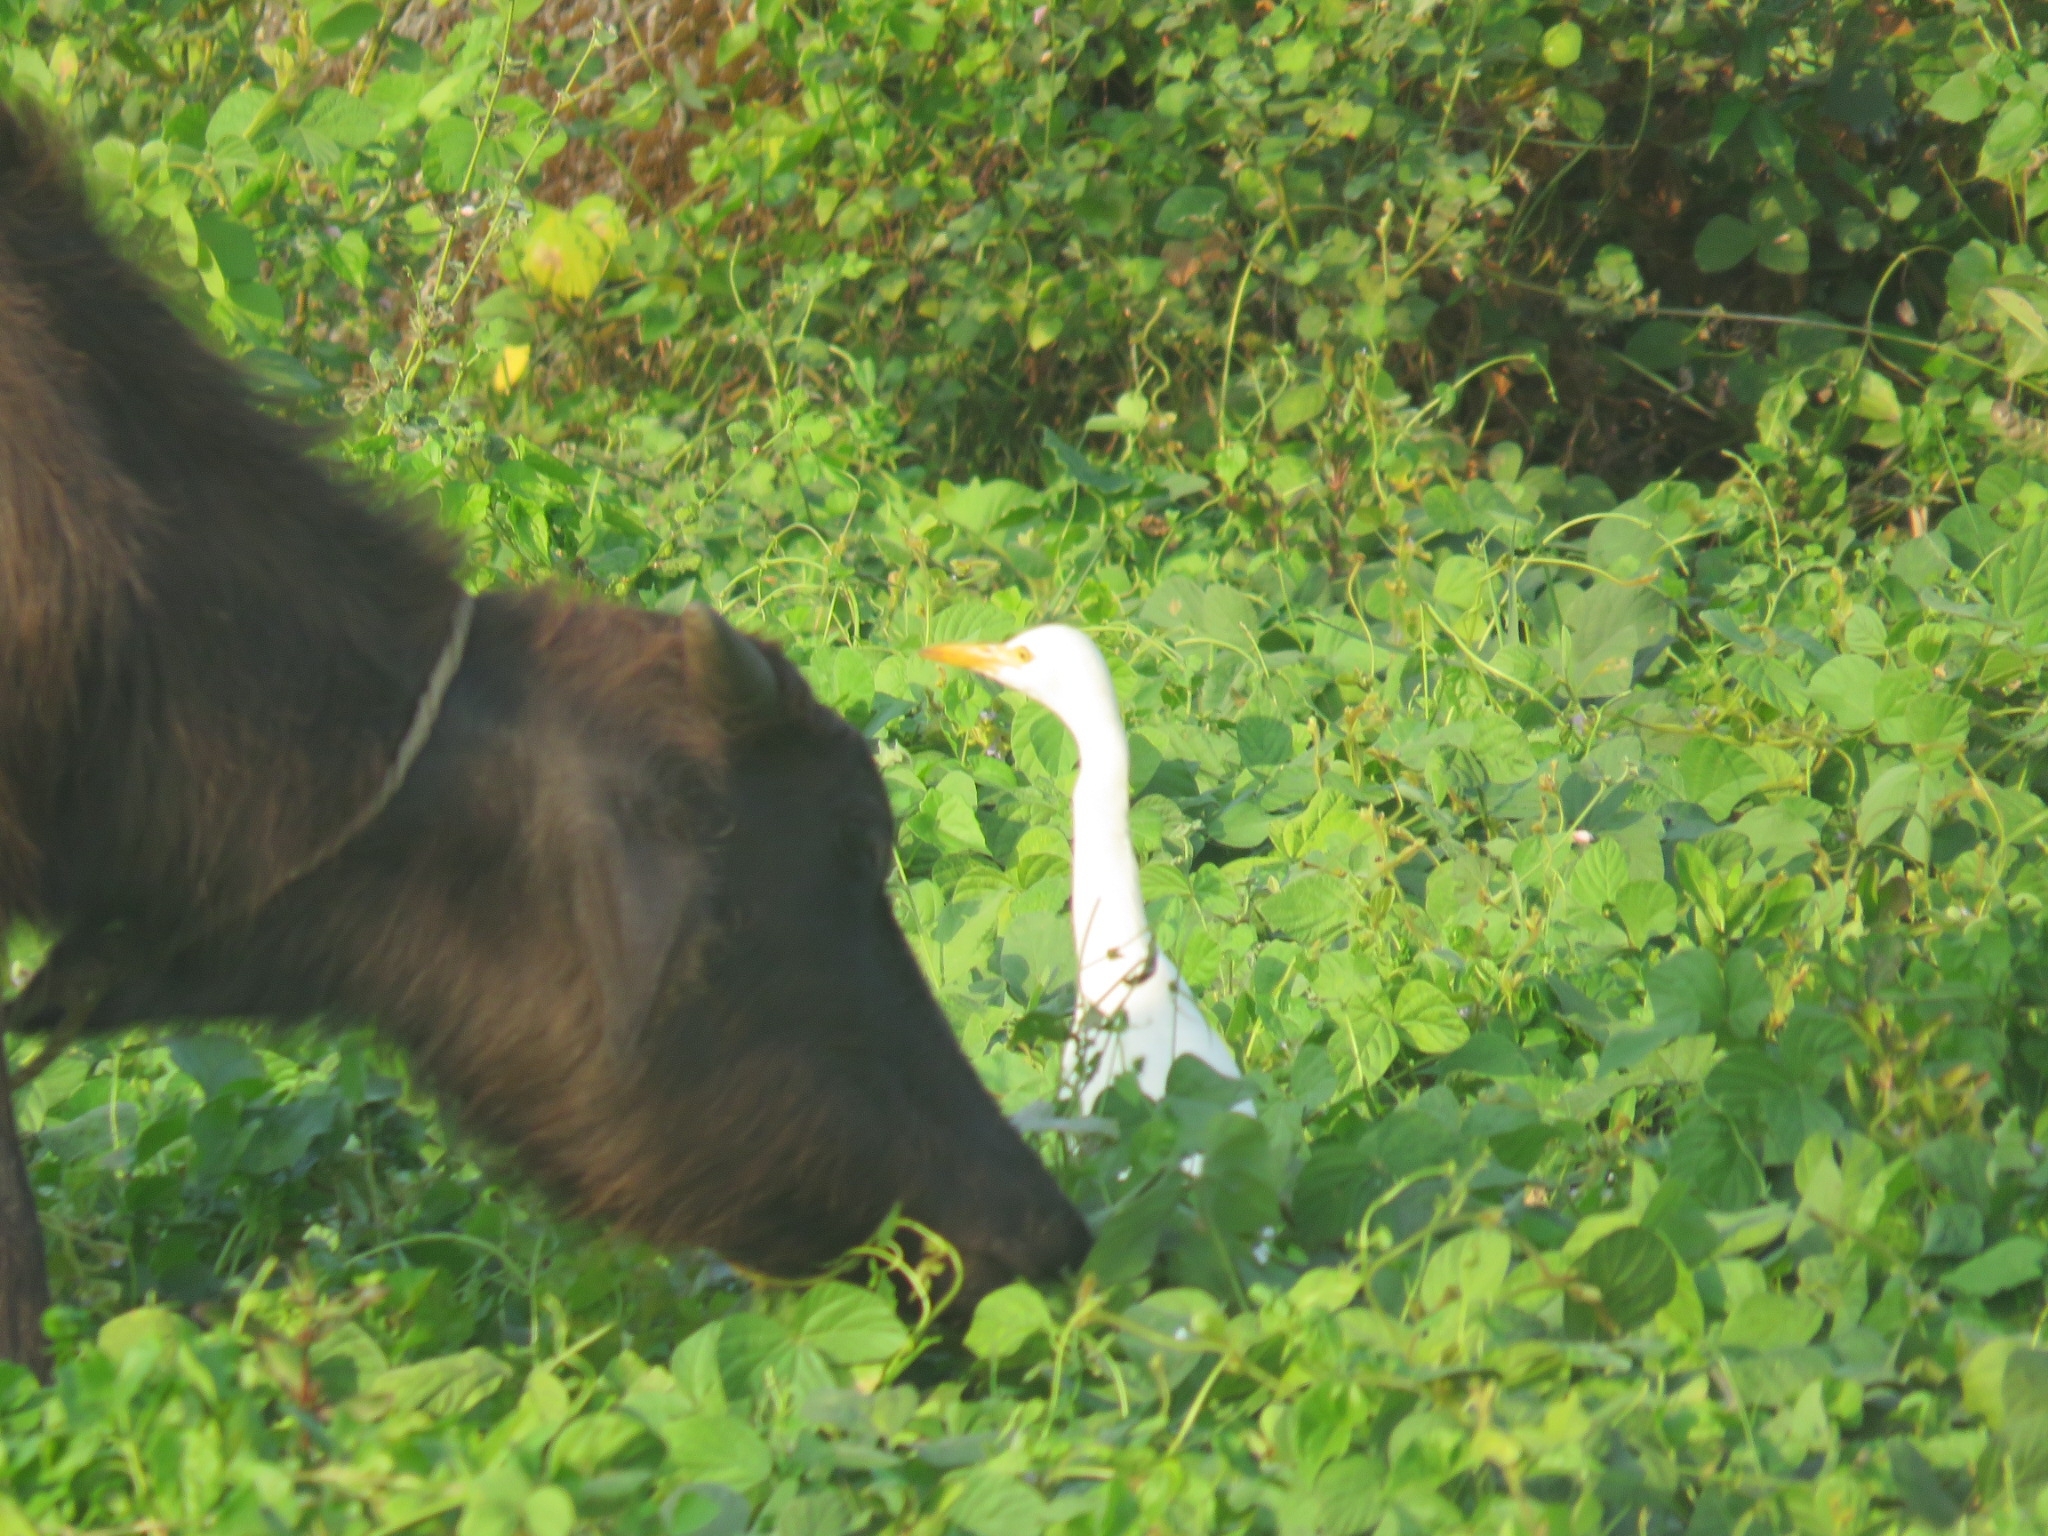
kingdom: Animalia
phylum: Chordata
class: Aves
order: Pelecaniformes
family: Ardeidae
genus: Bubulcus
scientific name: Bubulcus coromandus
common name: Eastern cattle egret
